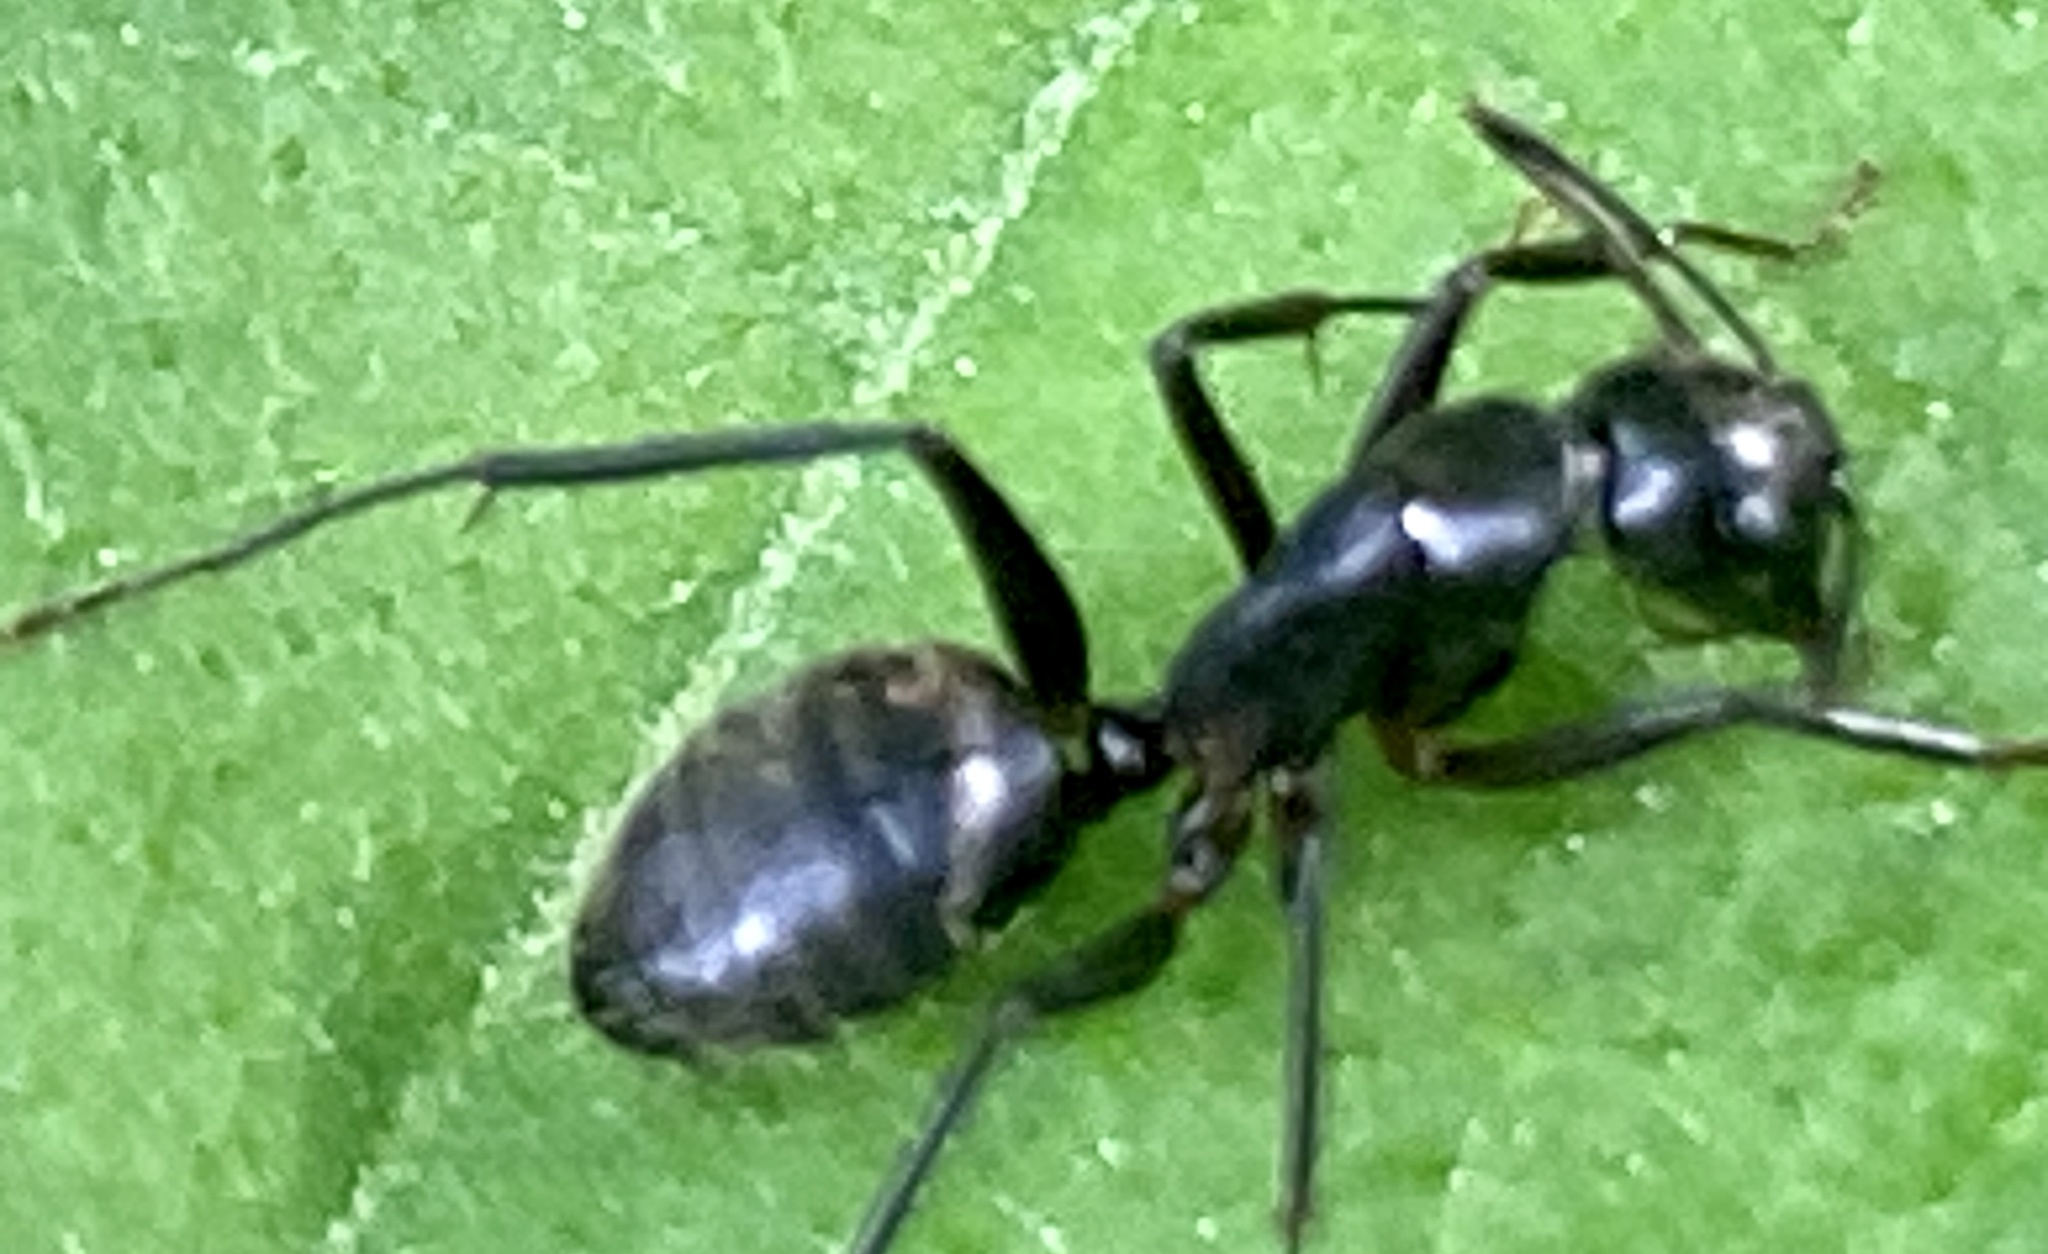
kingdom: Animalia
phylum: Arthropoda
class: Insecta
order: Hymenoptera
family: Formicidae
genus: Camponotus
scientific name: Camponotus pennsylvanicus
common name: Black carpenter ant
